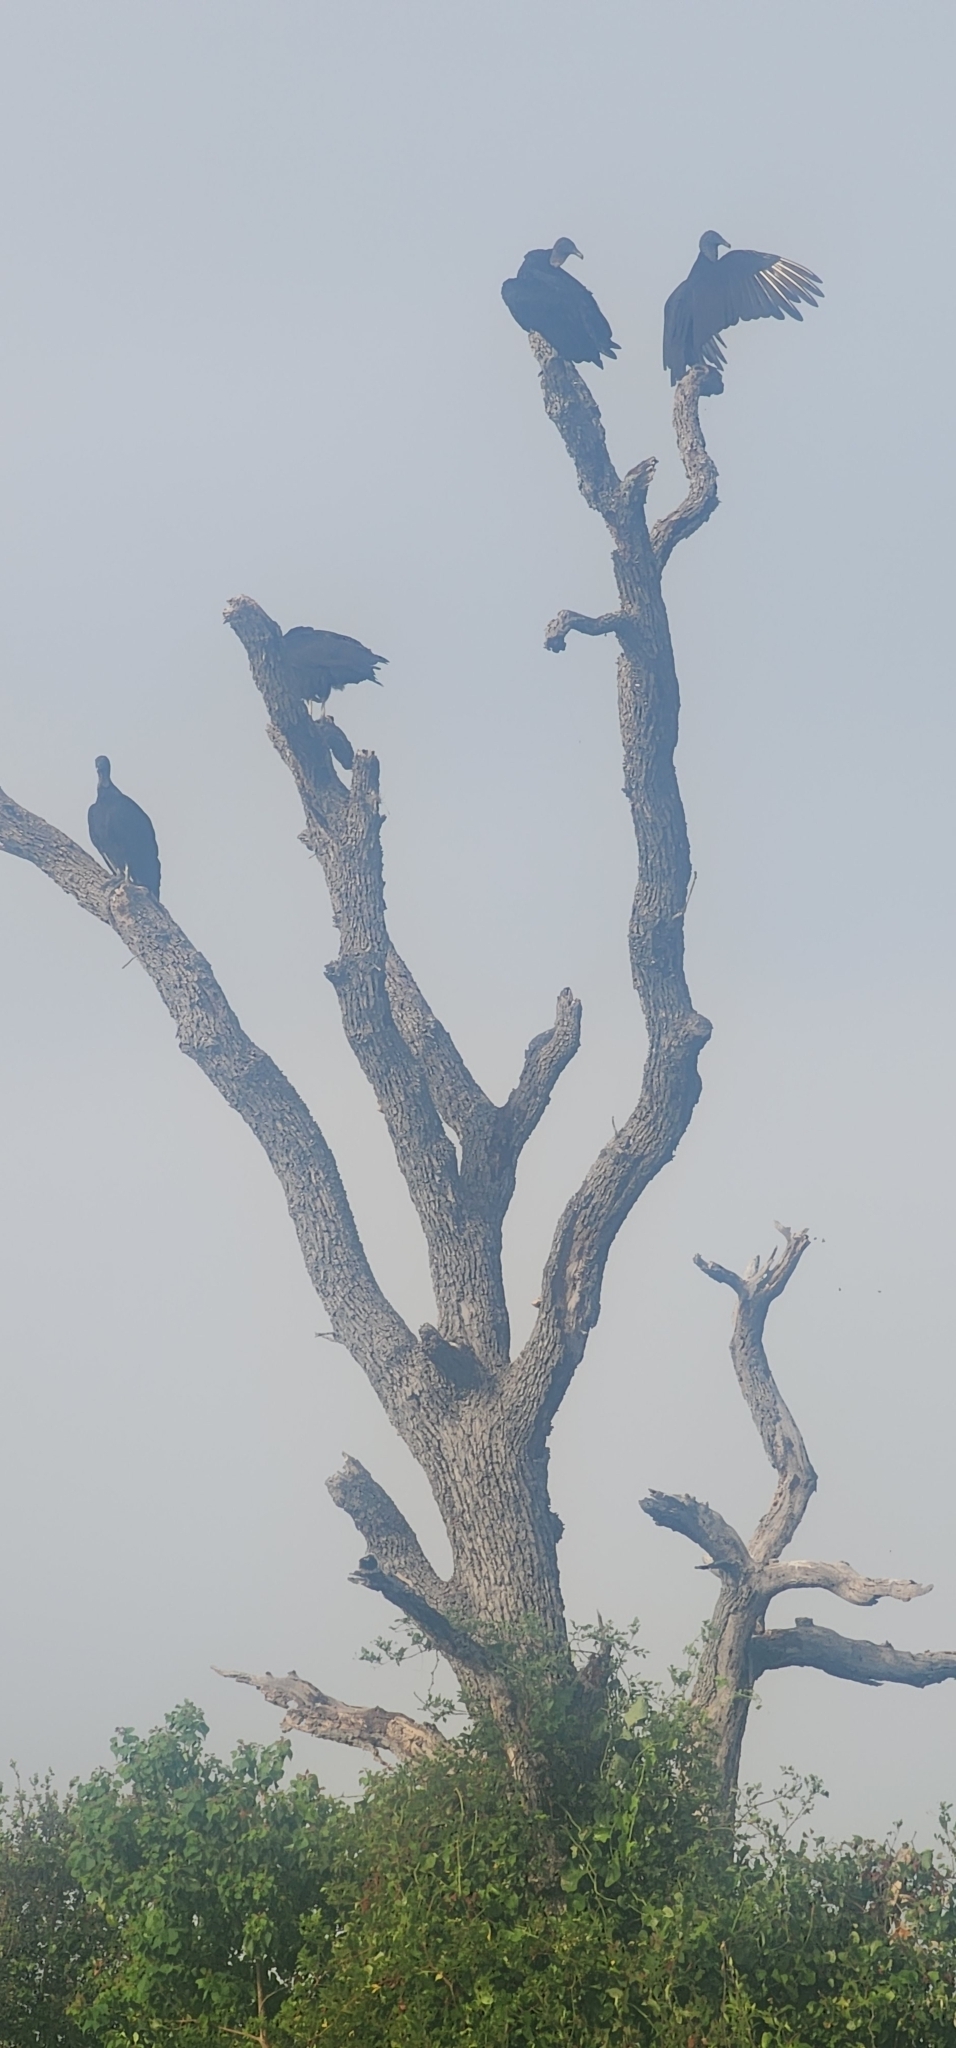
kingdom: Animalia
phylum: Chordata
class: Aves
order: Accipitriformes
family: Cathartidae
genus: Coragyps
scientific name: Coragyps atratus
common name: Black vulture
